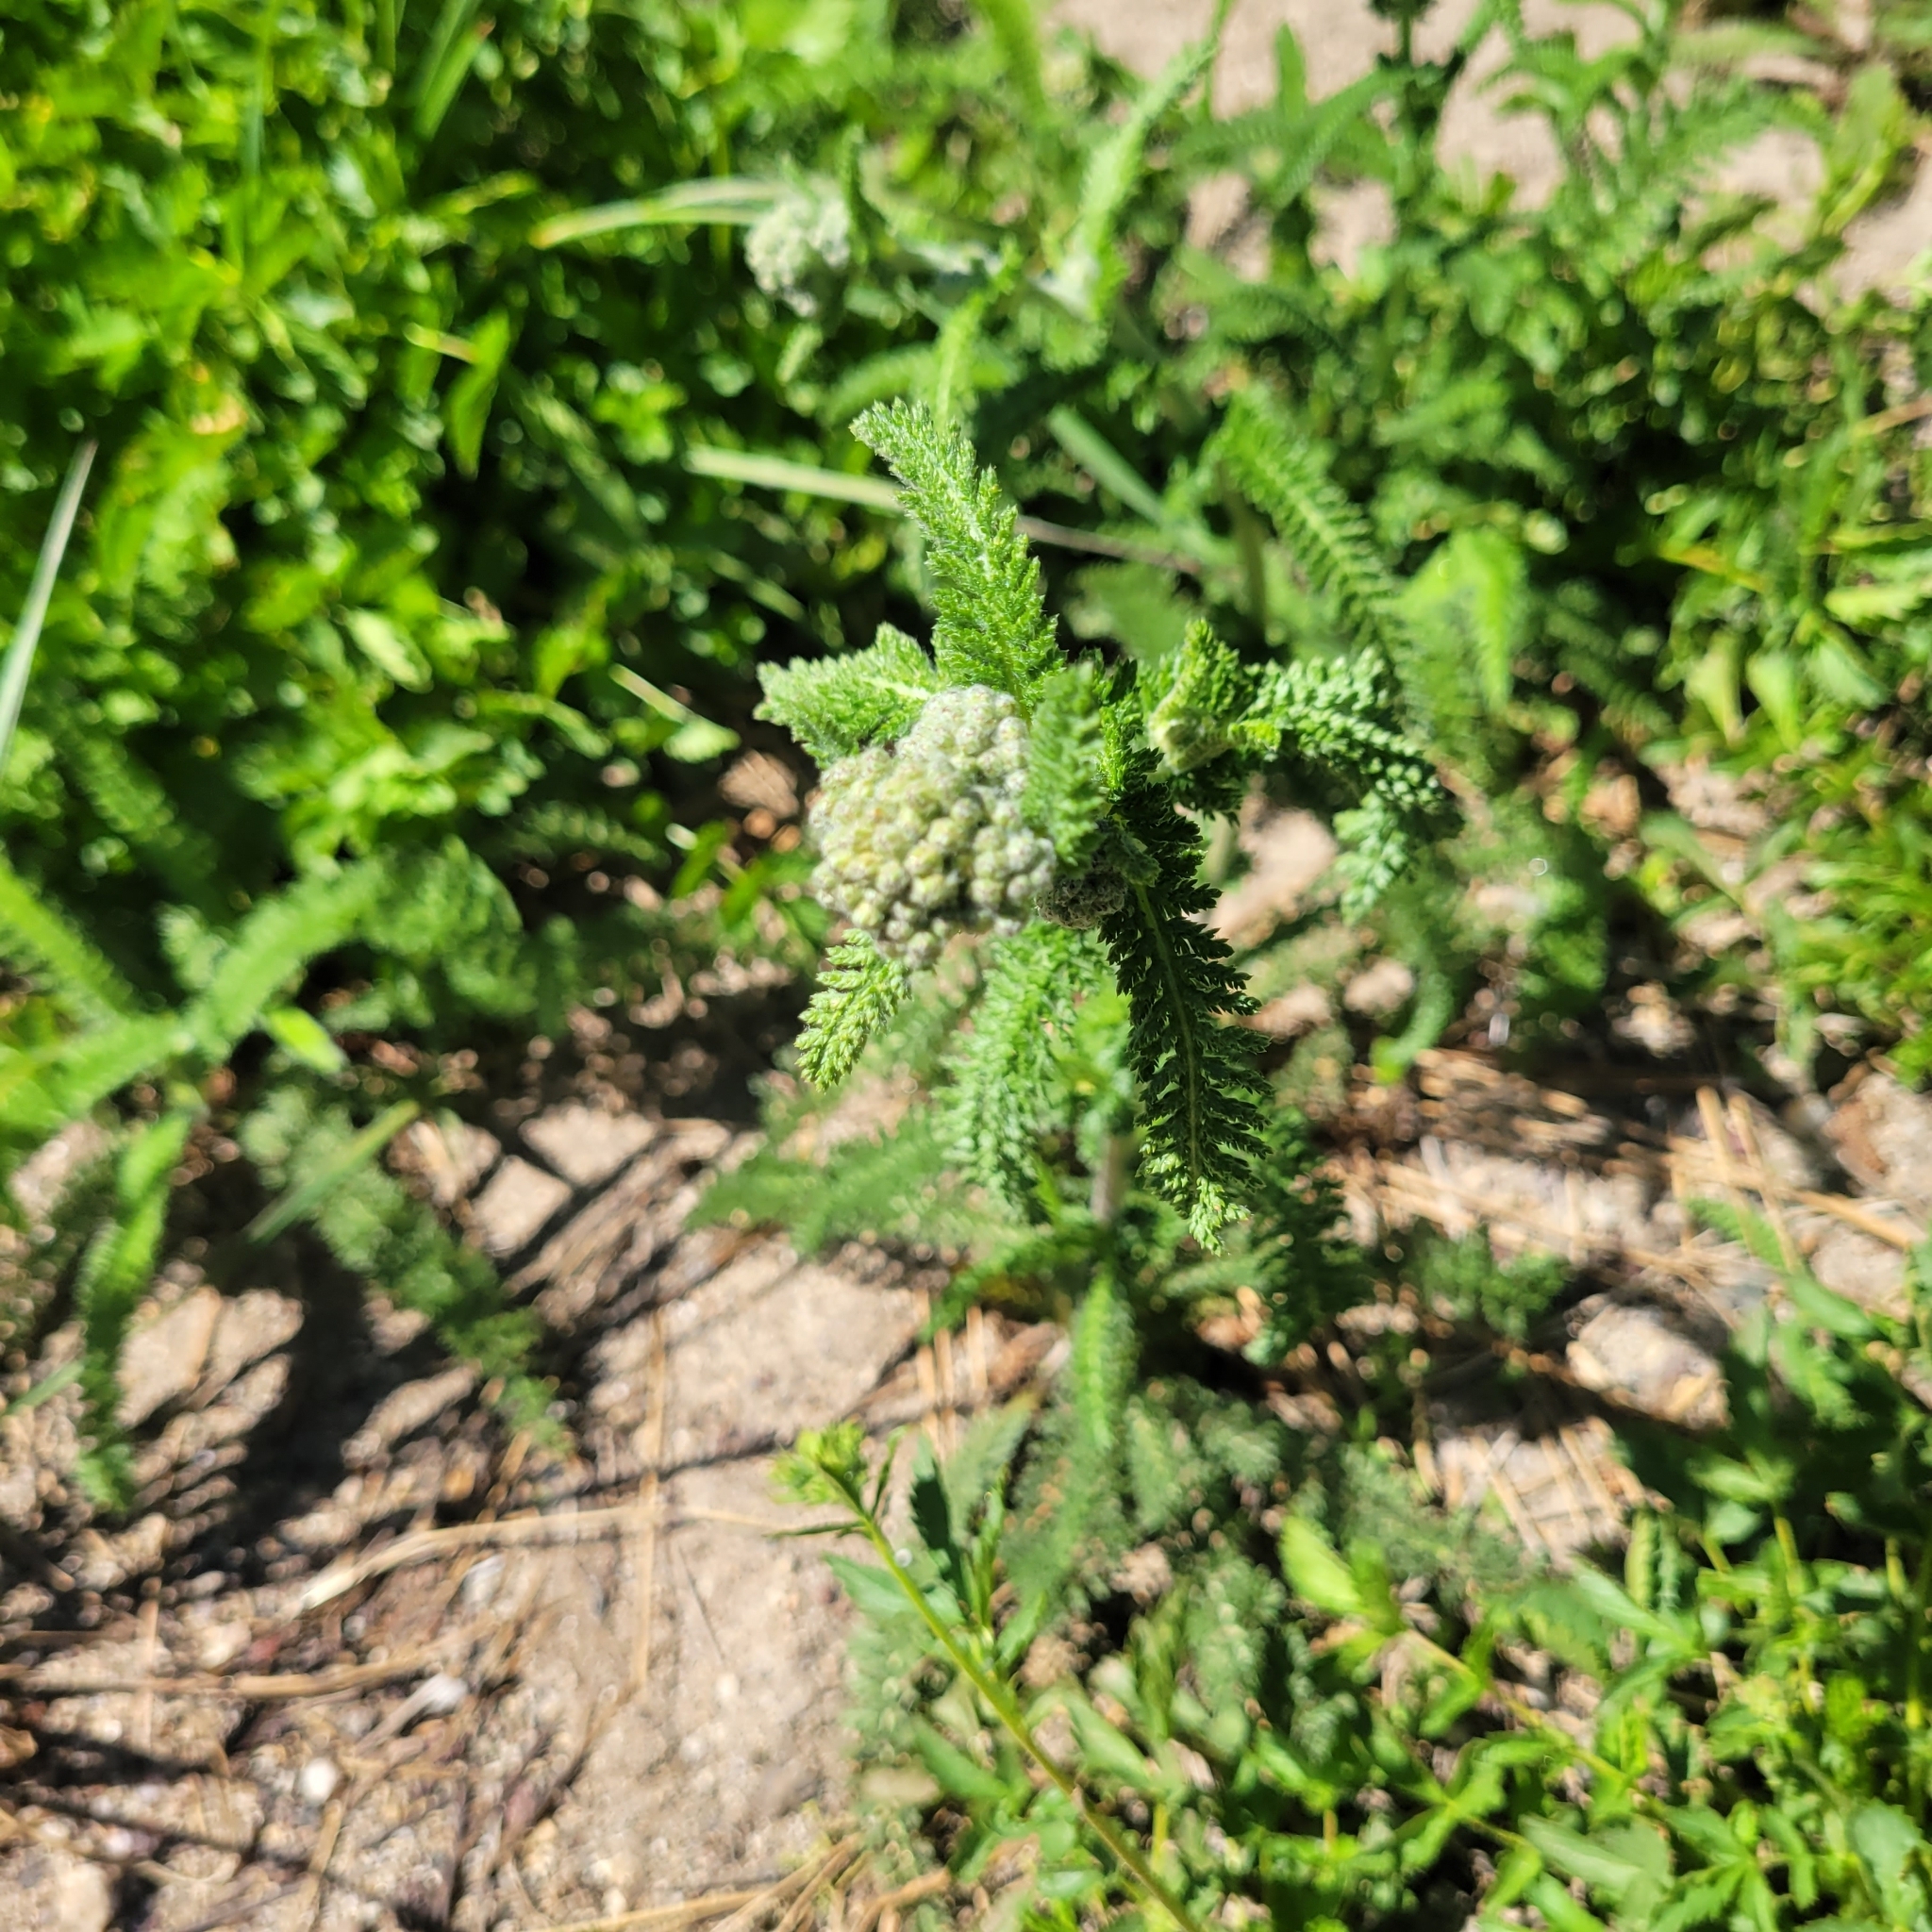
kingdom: Plantae
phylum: Tracheophyta
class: Magnoliopsida
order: Asterales
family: Asteraceae
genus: Achillea
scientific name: Achillea millefolium
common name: Yarrow
